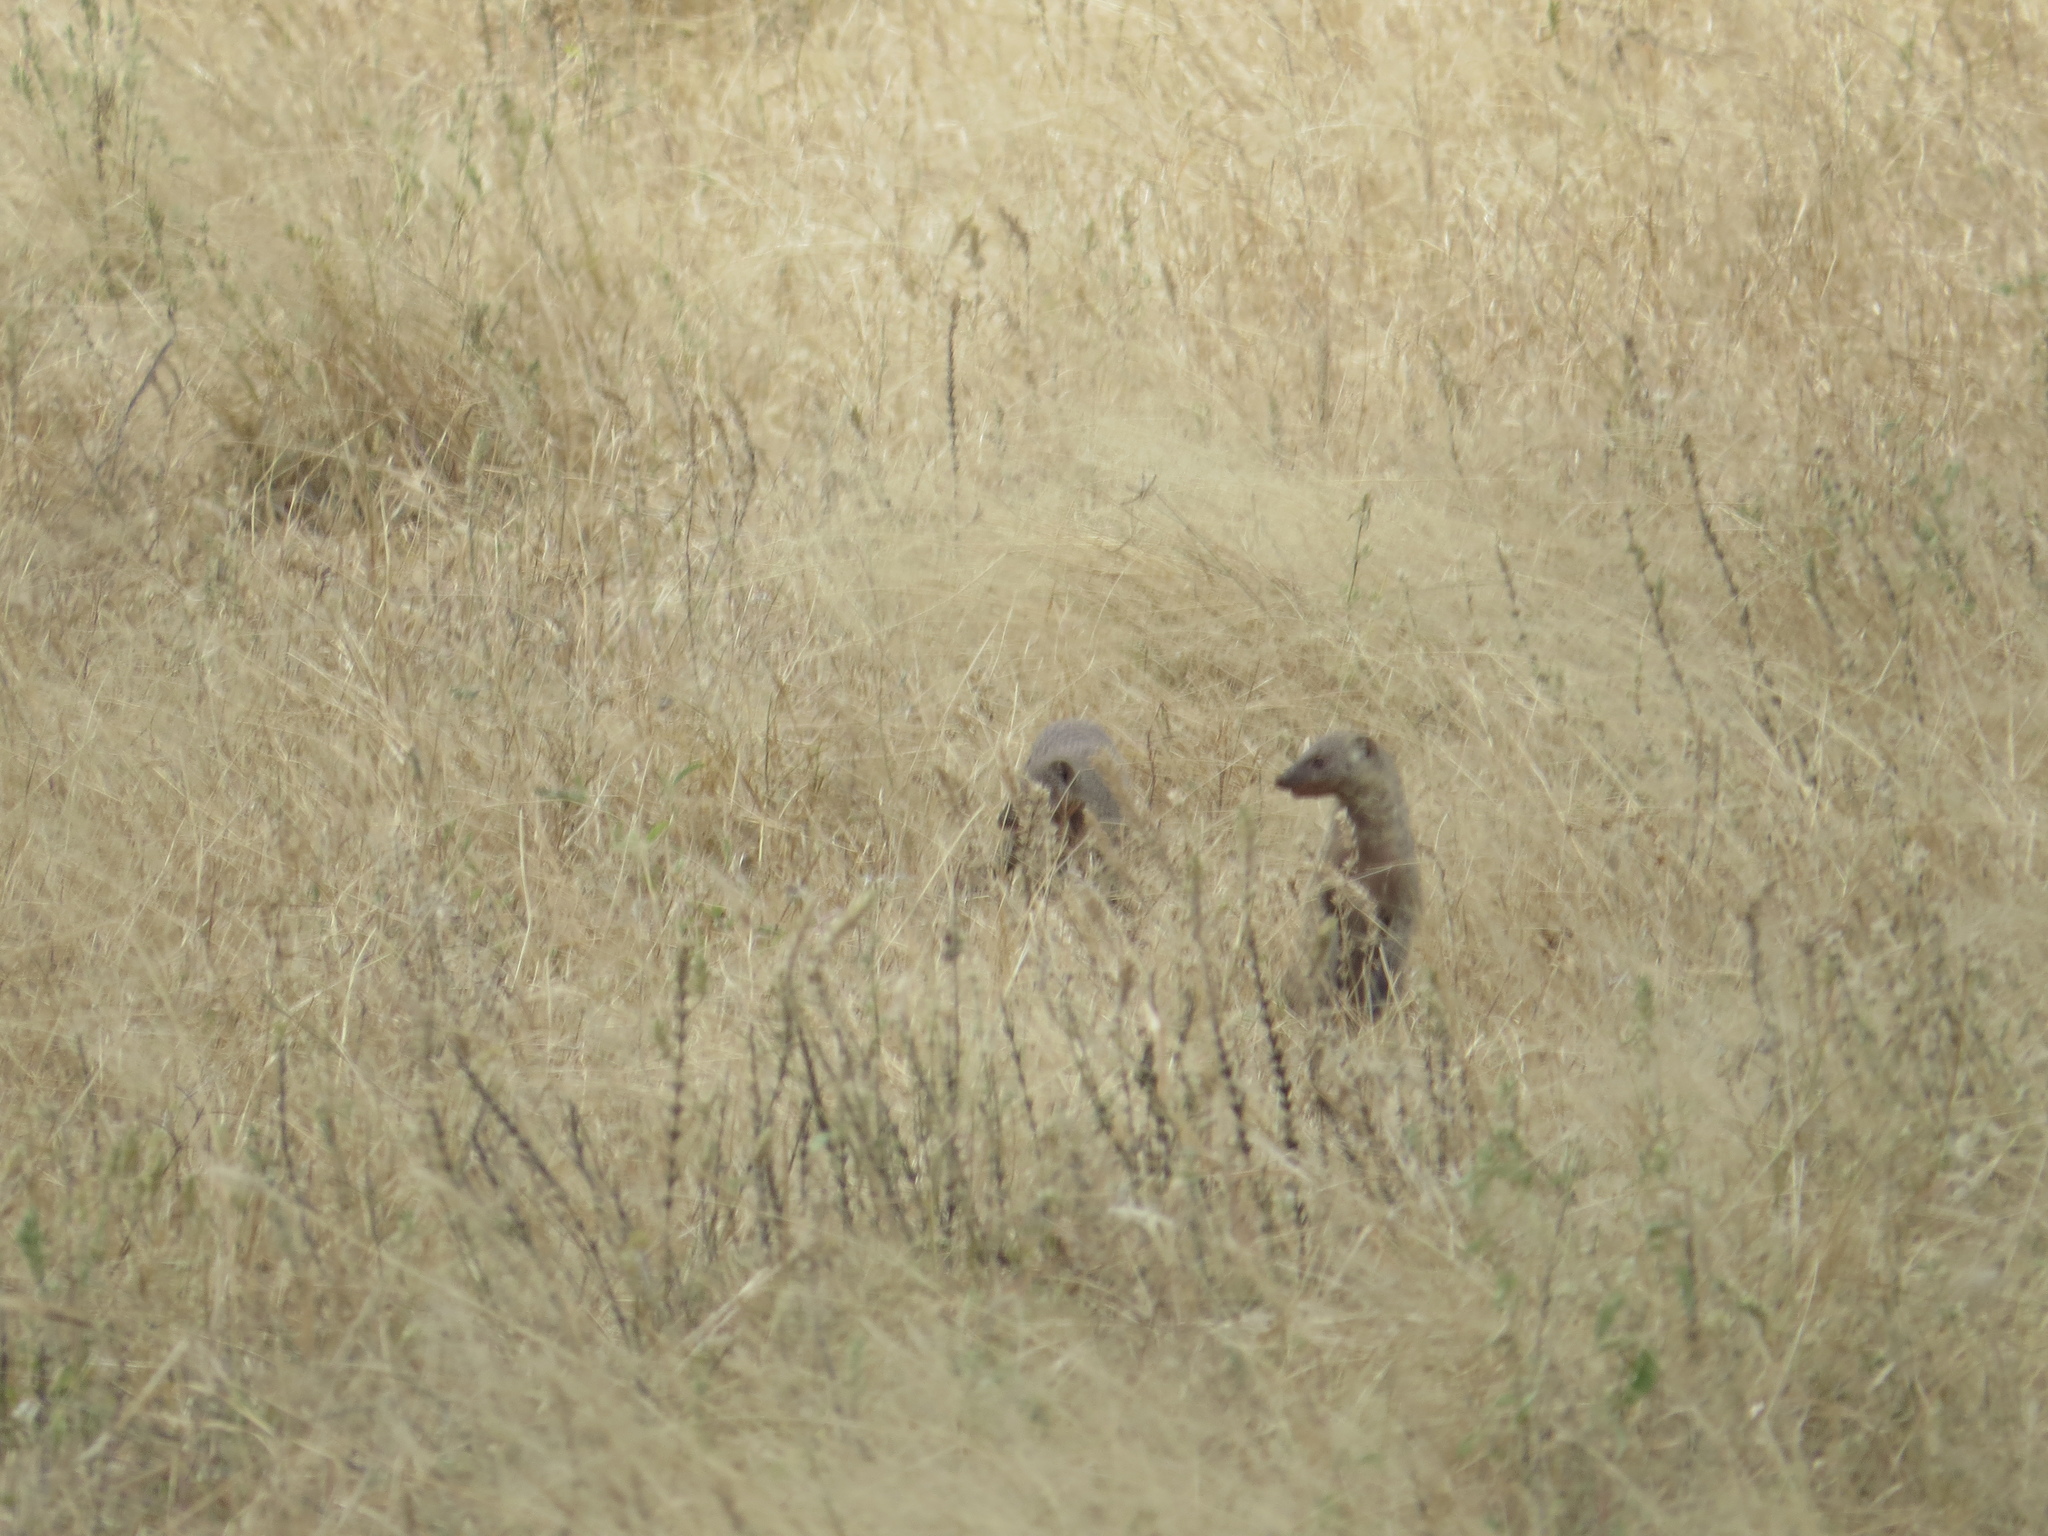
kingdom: Animalia
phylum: Chordata
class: Mammalia
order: Carnivora
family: Herpestidae
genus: Mungos
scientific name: Mungos mungo
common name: Banded mongoose
